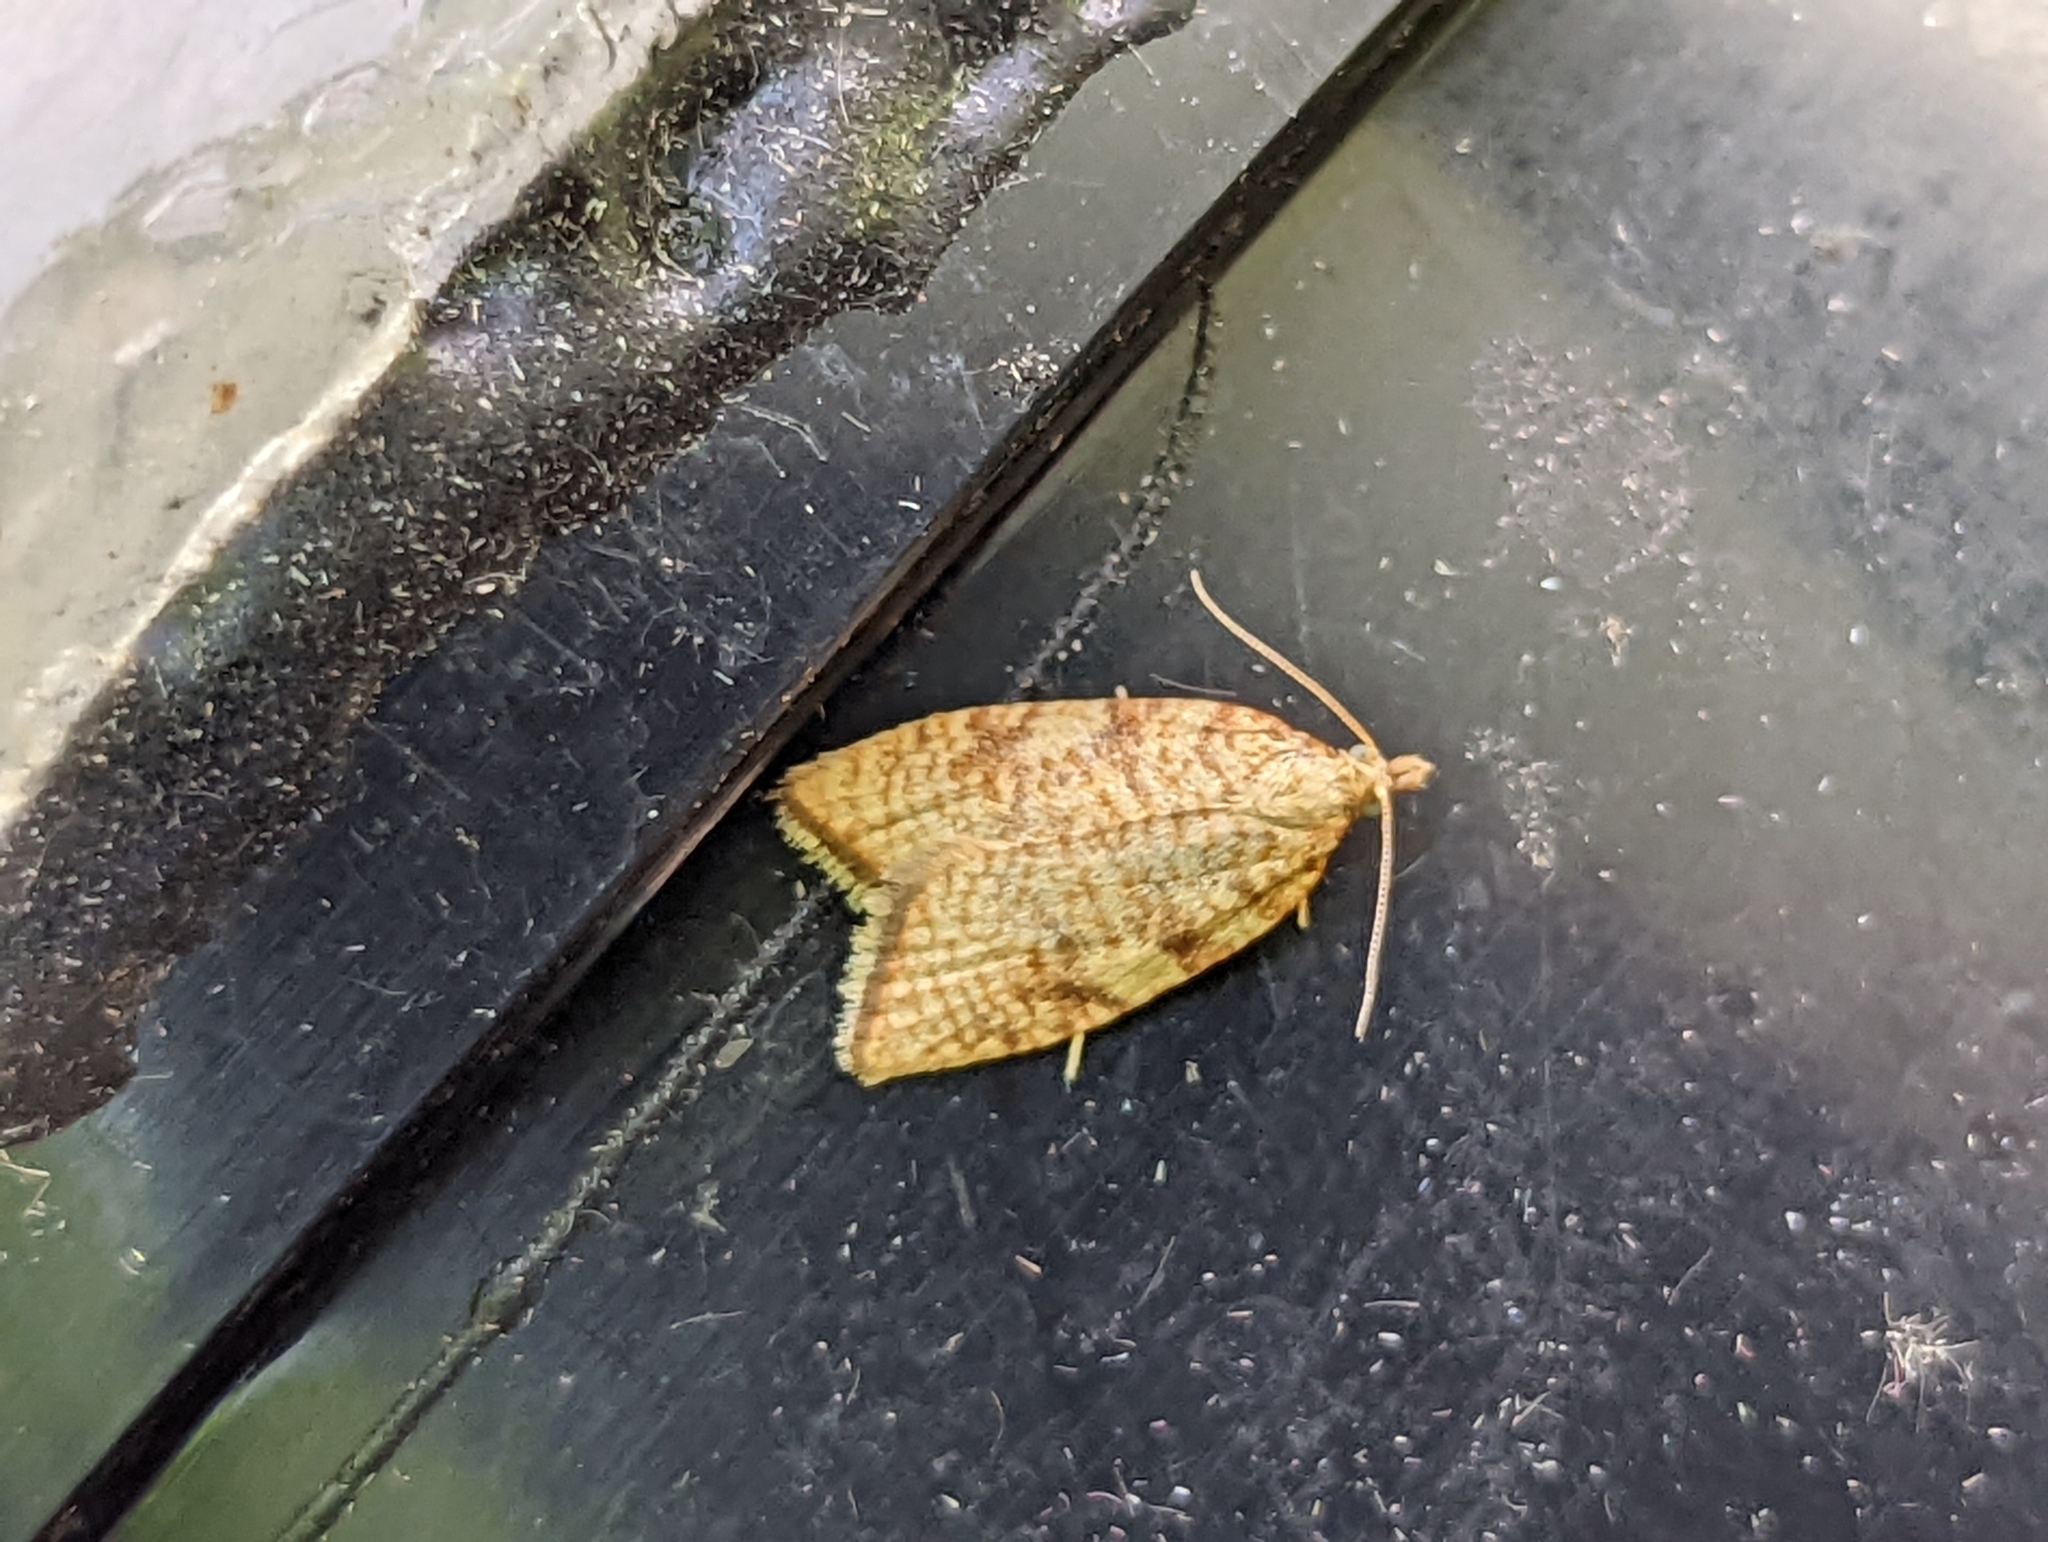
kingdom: Animalia
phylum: Arthropoda
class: Insecta
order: Lepidoptera
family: Tortricidae
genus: Aleimma
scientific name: Aleimma loeflingiana
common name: Yellow oak button
